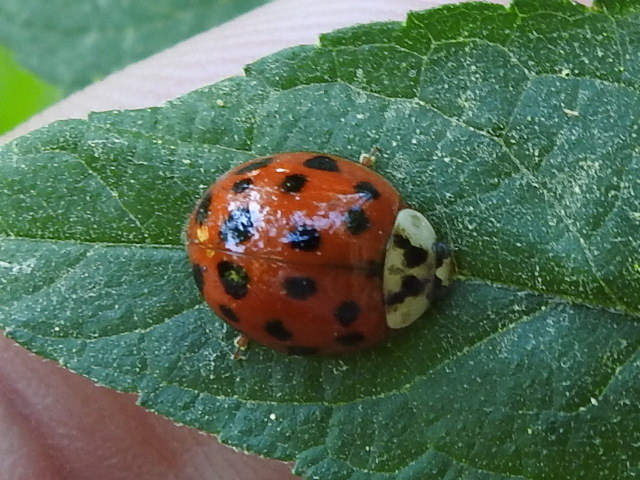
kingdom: Animalia
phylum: Arthropoda
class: Insecta
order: Coleoptera
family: Coccinellidae
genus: Harmonia
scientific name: Harmonia axyridis
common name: Harlequin ladybird
